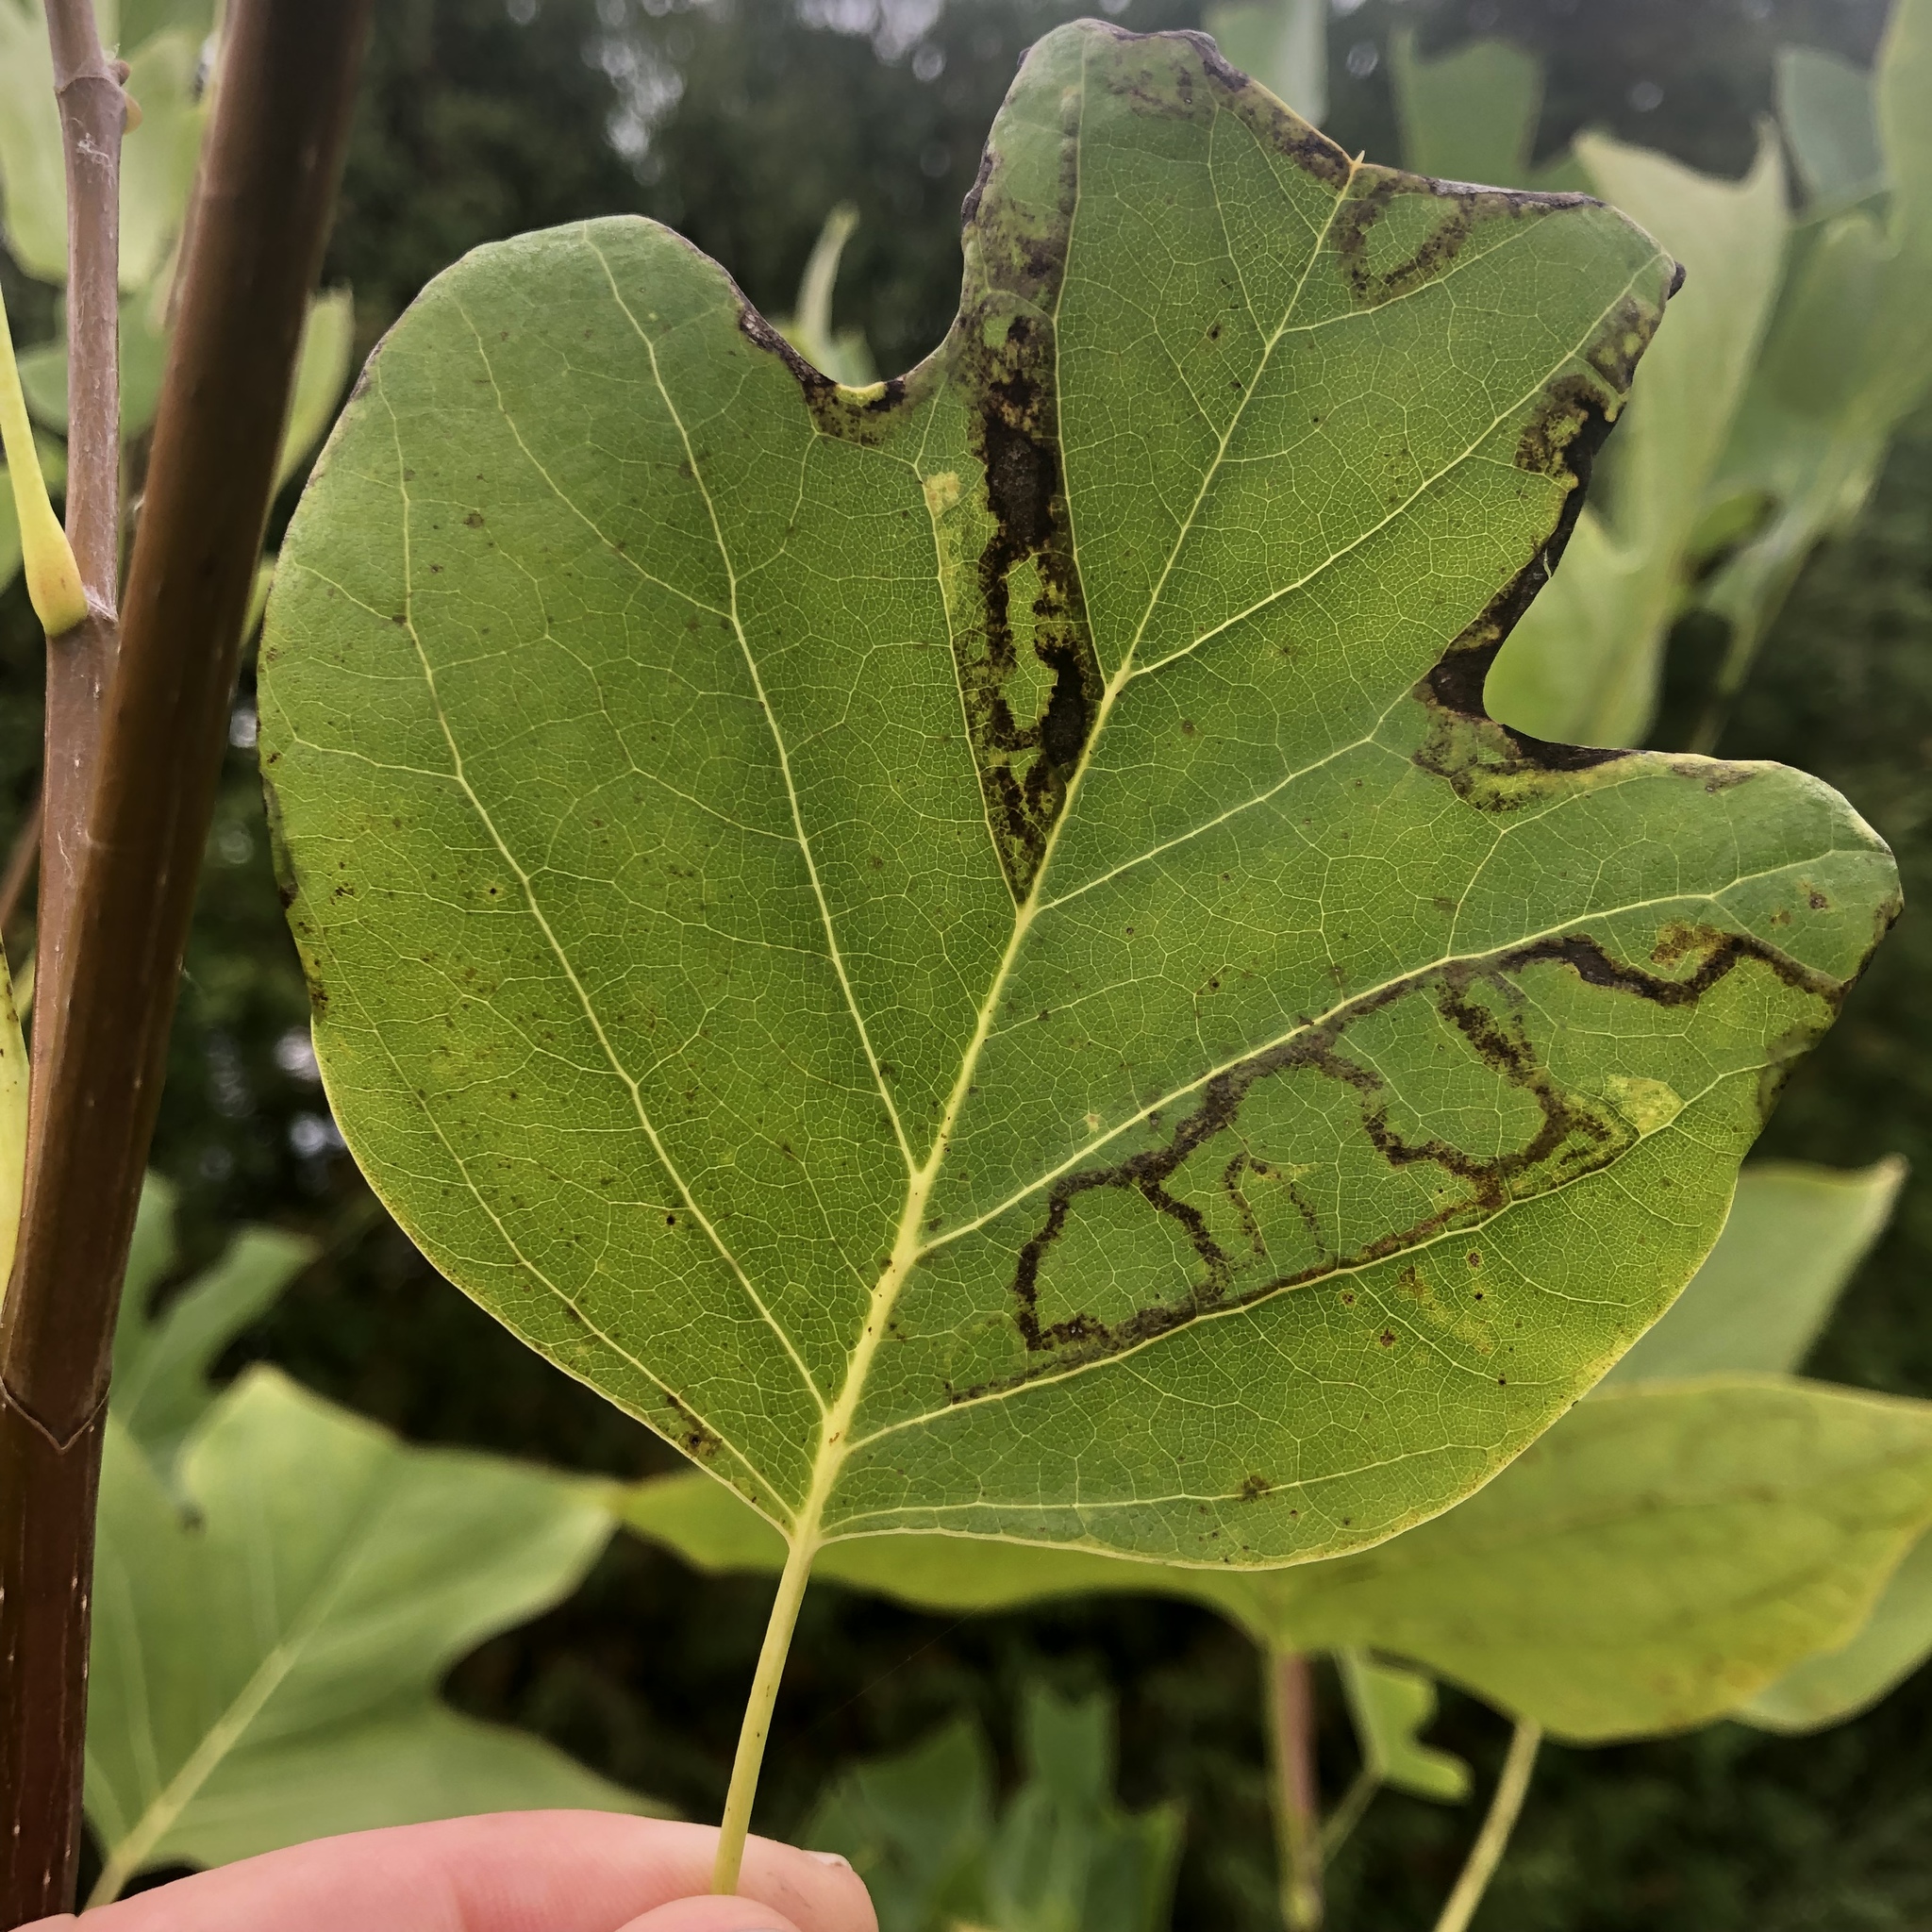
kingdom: Animalia
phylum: Arthropoda
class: Insecta
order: Lepidoptera
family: Gracillariidae
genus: Phyllocnistis
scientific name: Phyllocnistis liriodendronella
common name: Tulip tree leaf miner
